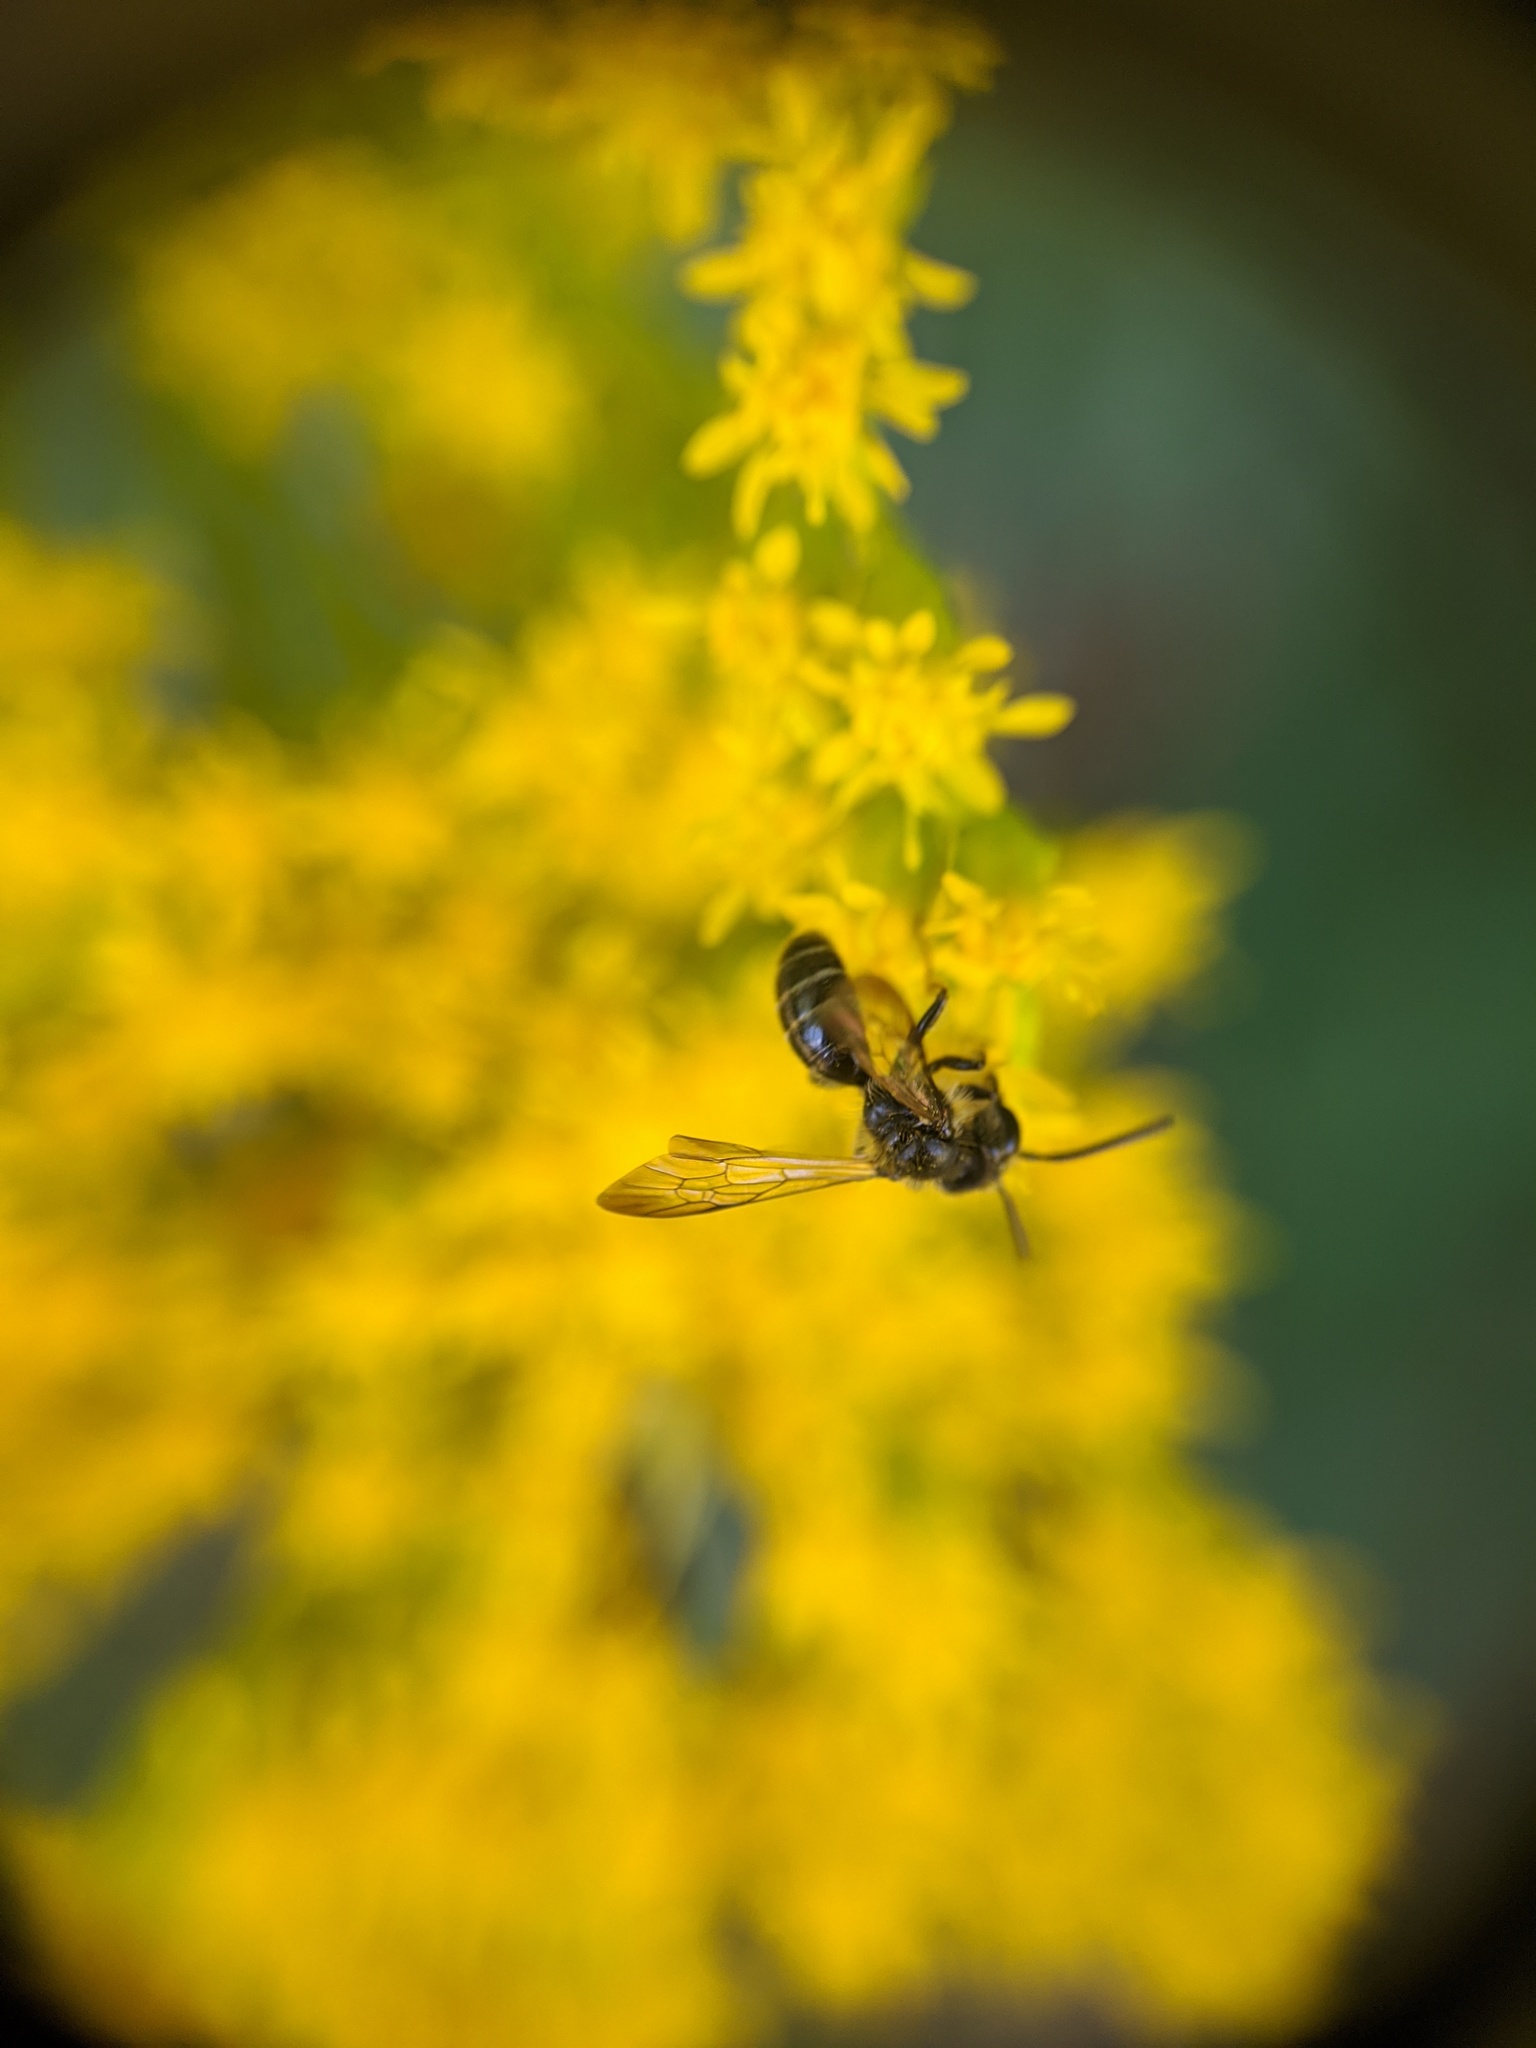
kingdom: Animalia
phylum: Arthropoda
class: Insecta
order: Hymenoptera
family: Andrenidae
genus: Andrena
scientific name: Andrena nubecula
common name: Cloudy-winged mining bee
